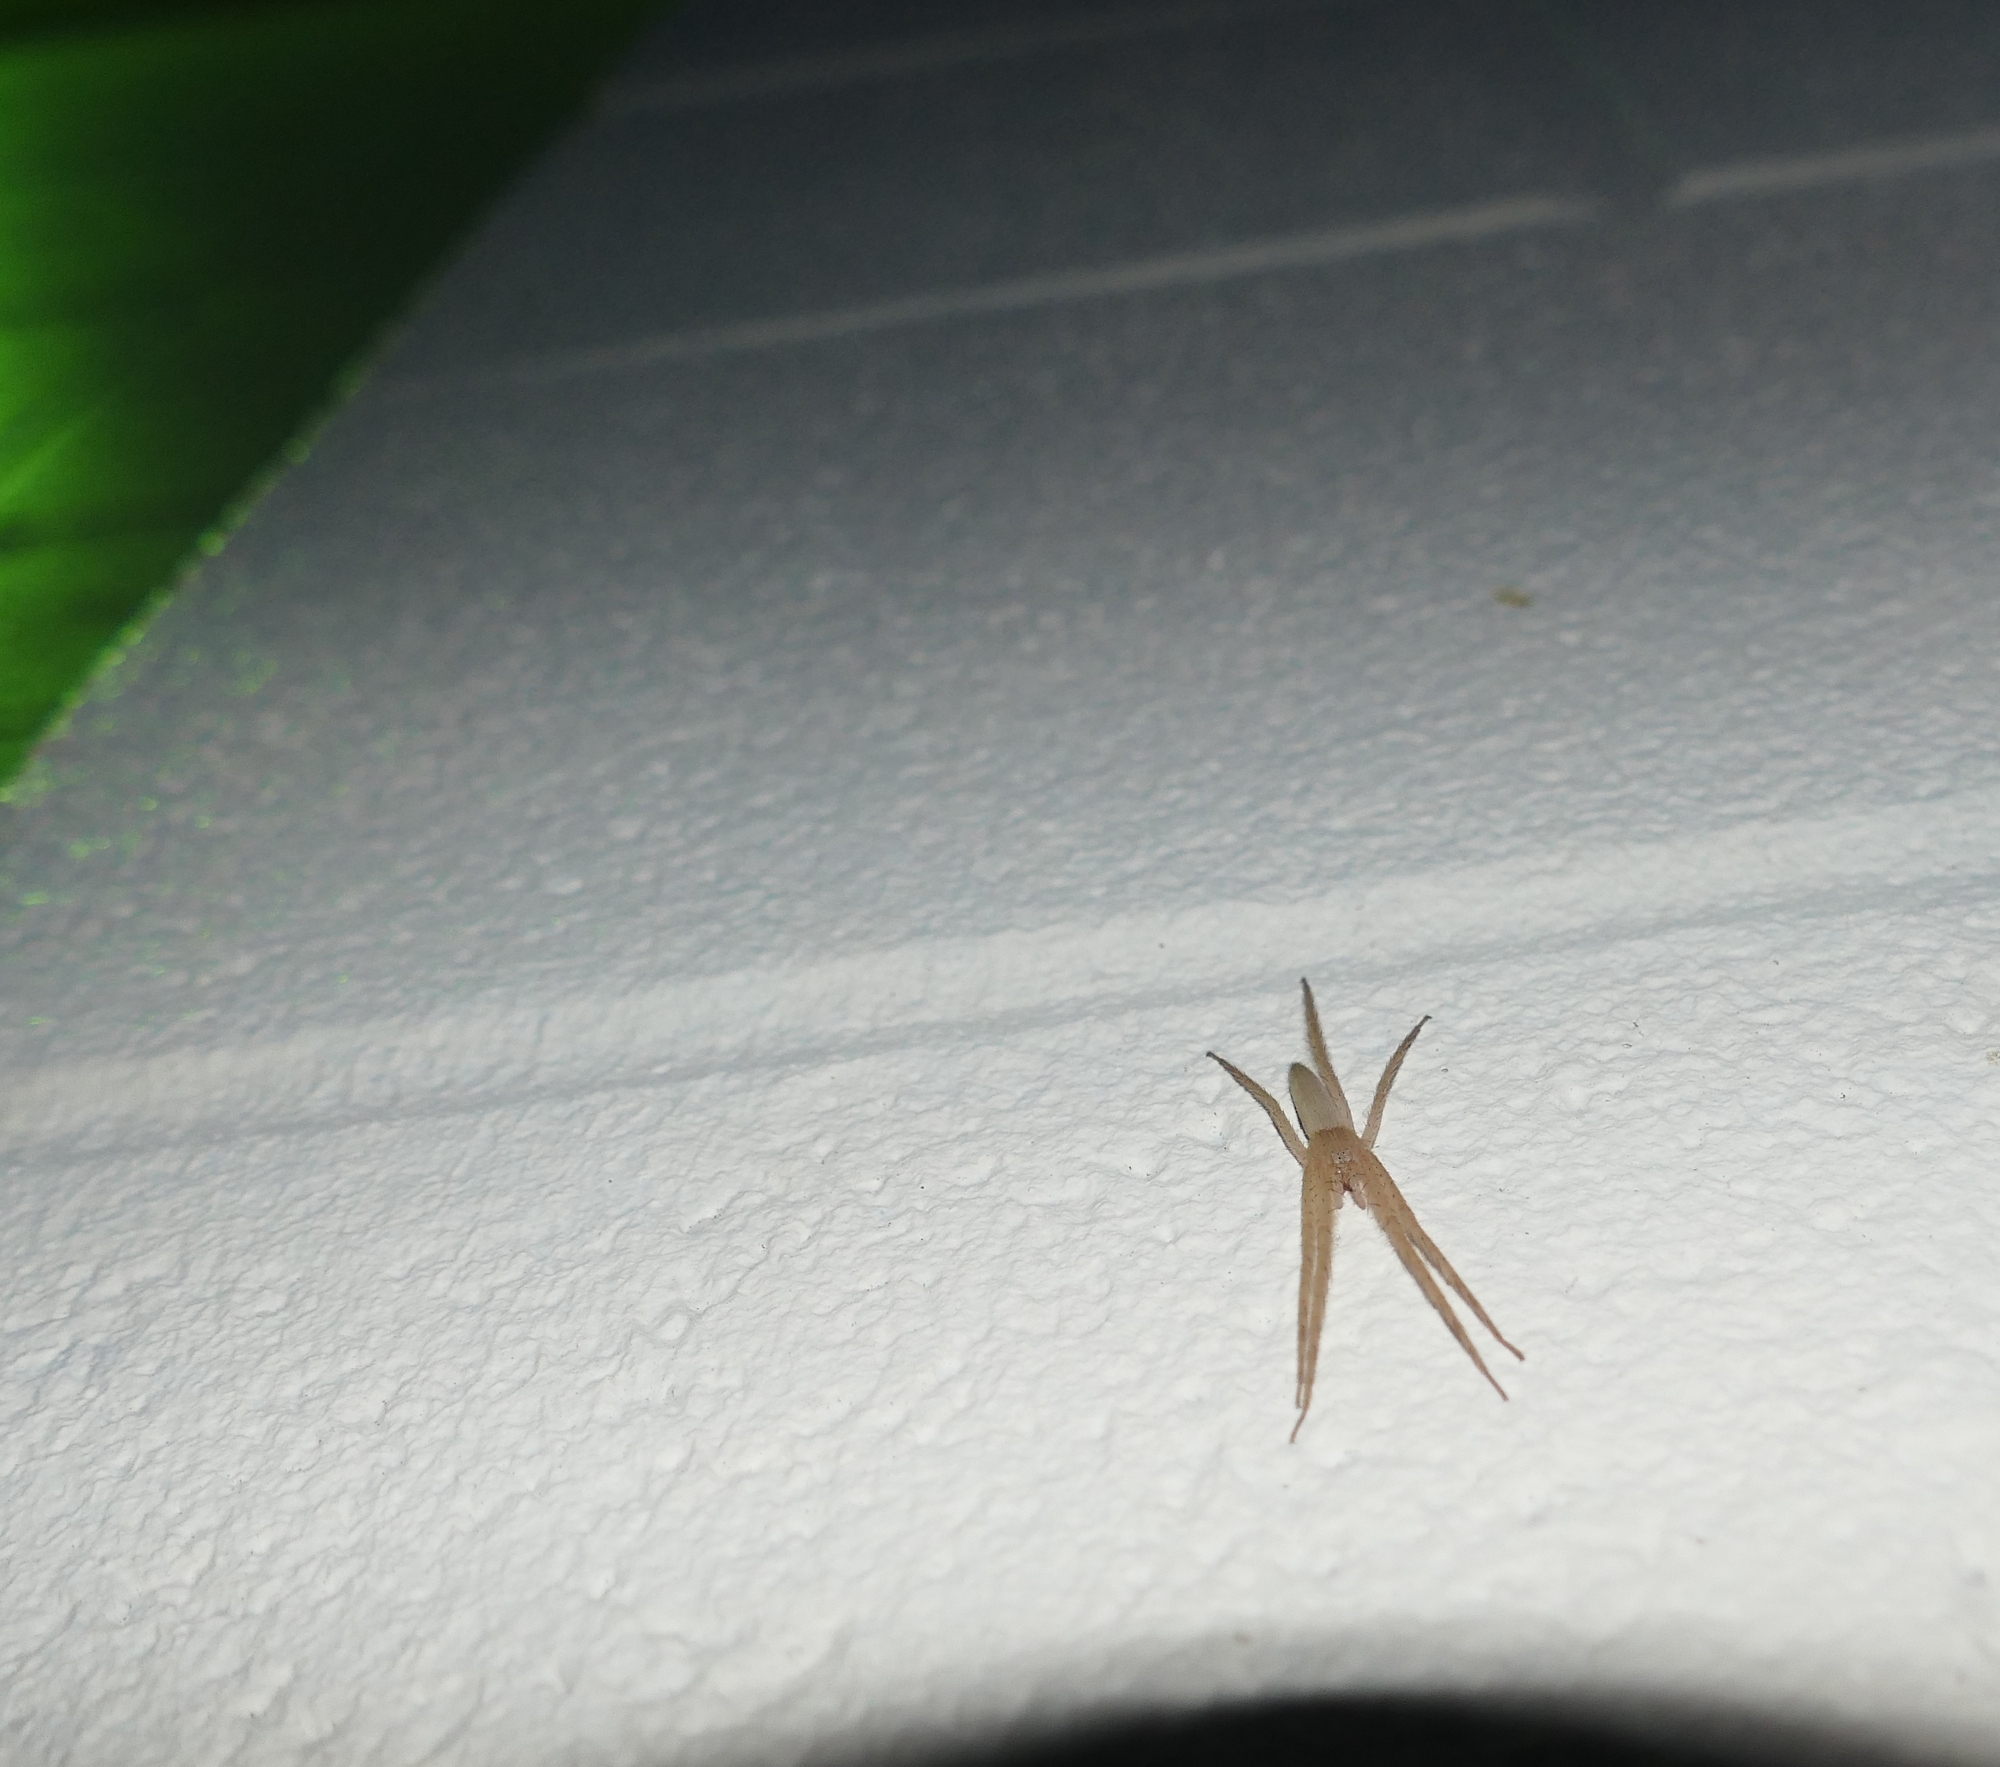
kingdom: Animalia
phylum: Arthropoda
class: Arachnida
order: Araneae
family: Pisauridae
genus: Pisaurina
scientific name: Pisaurina undulata
